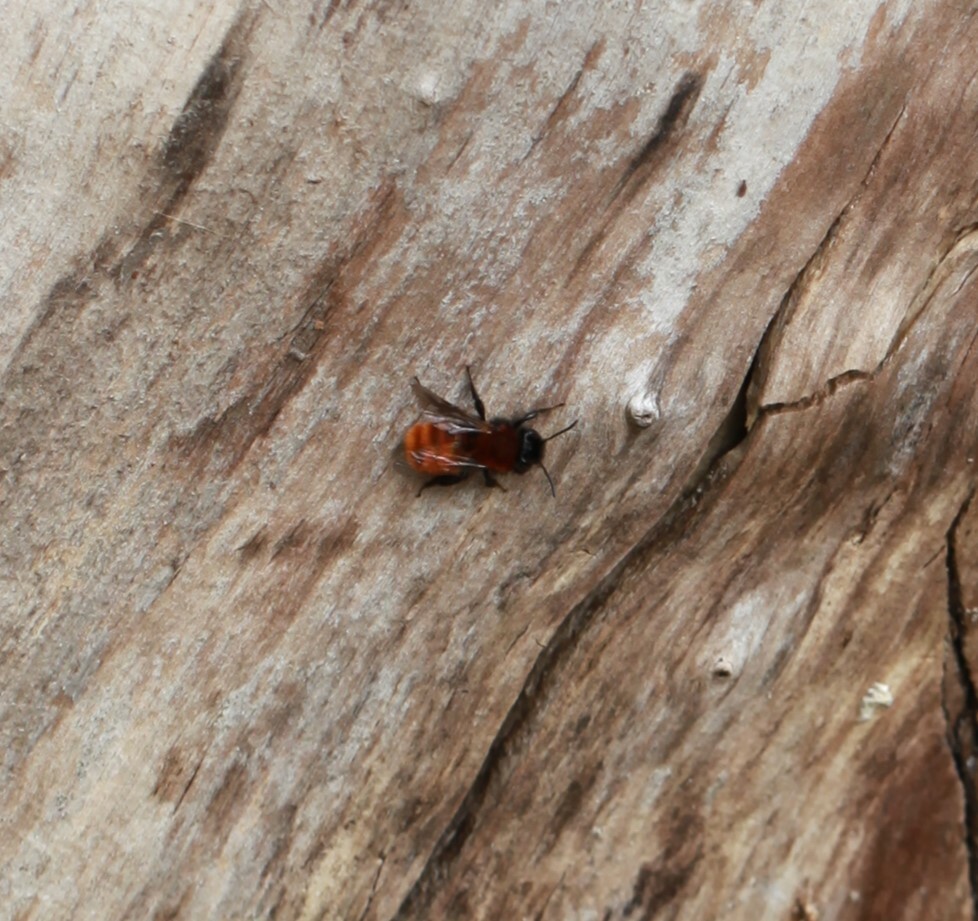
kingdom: Animalia
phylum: Arthropoda
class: Insecta
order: Hymenoptera
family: Andrenidae
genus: Andrena
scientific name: Andrena fulva
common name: Tawny mining bee
